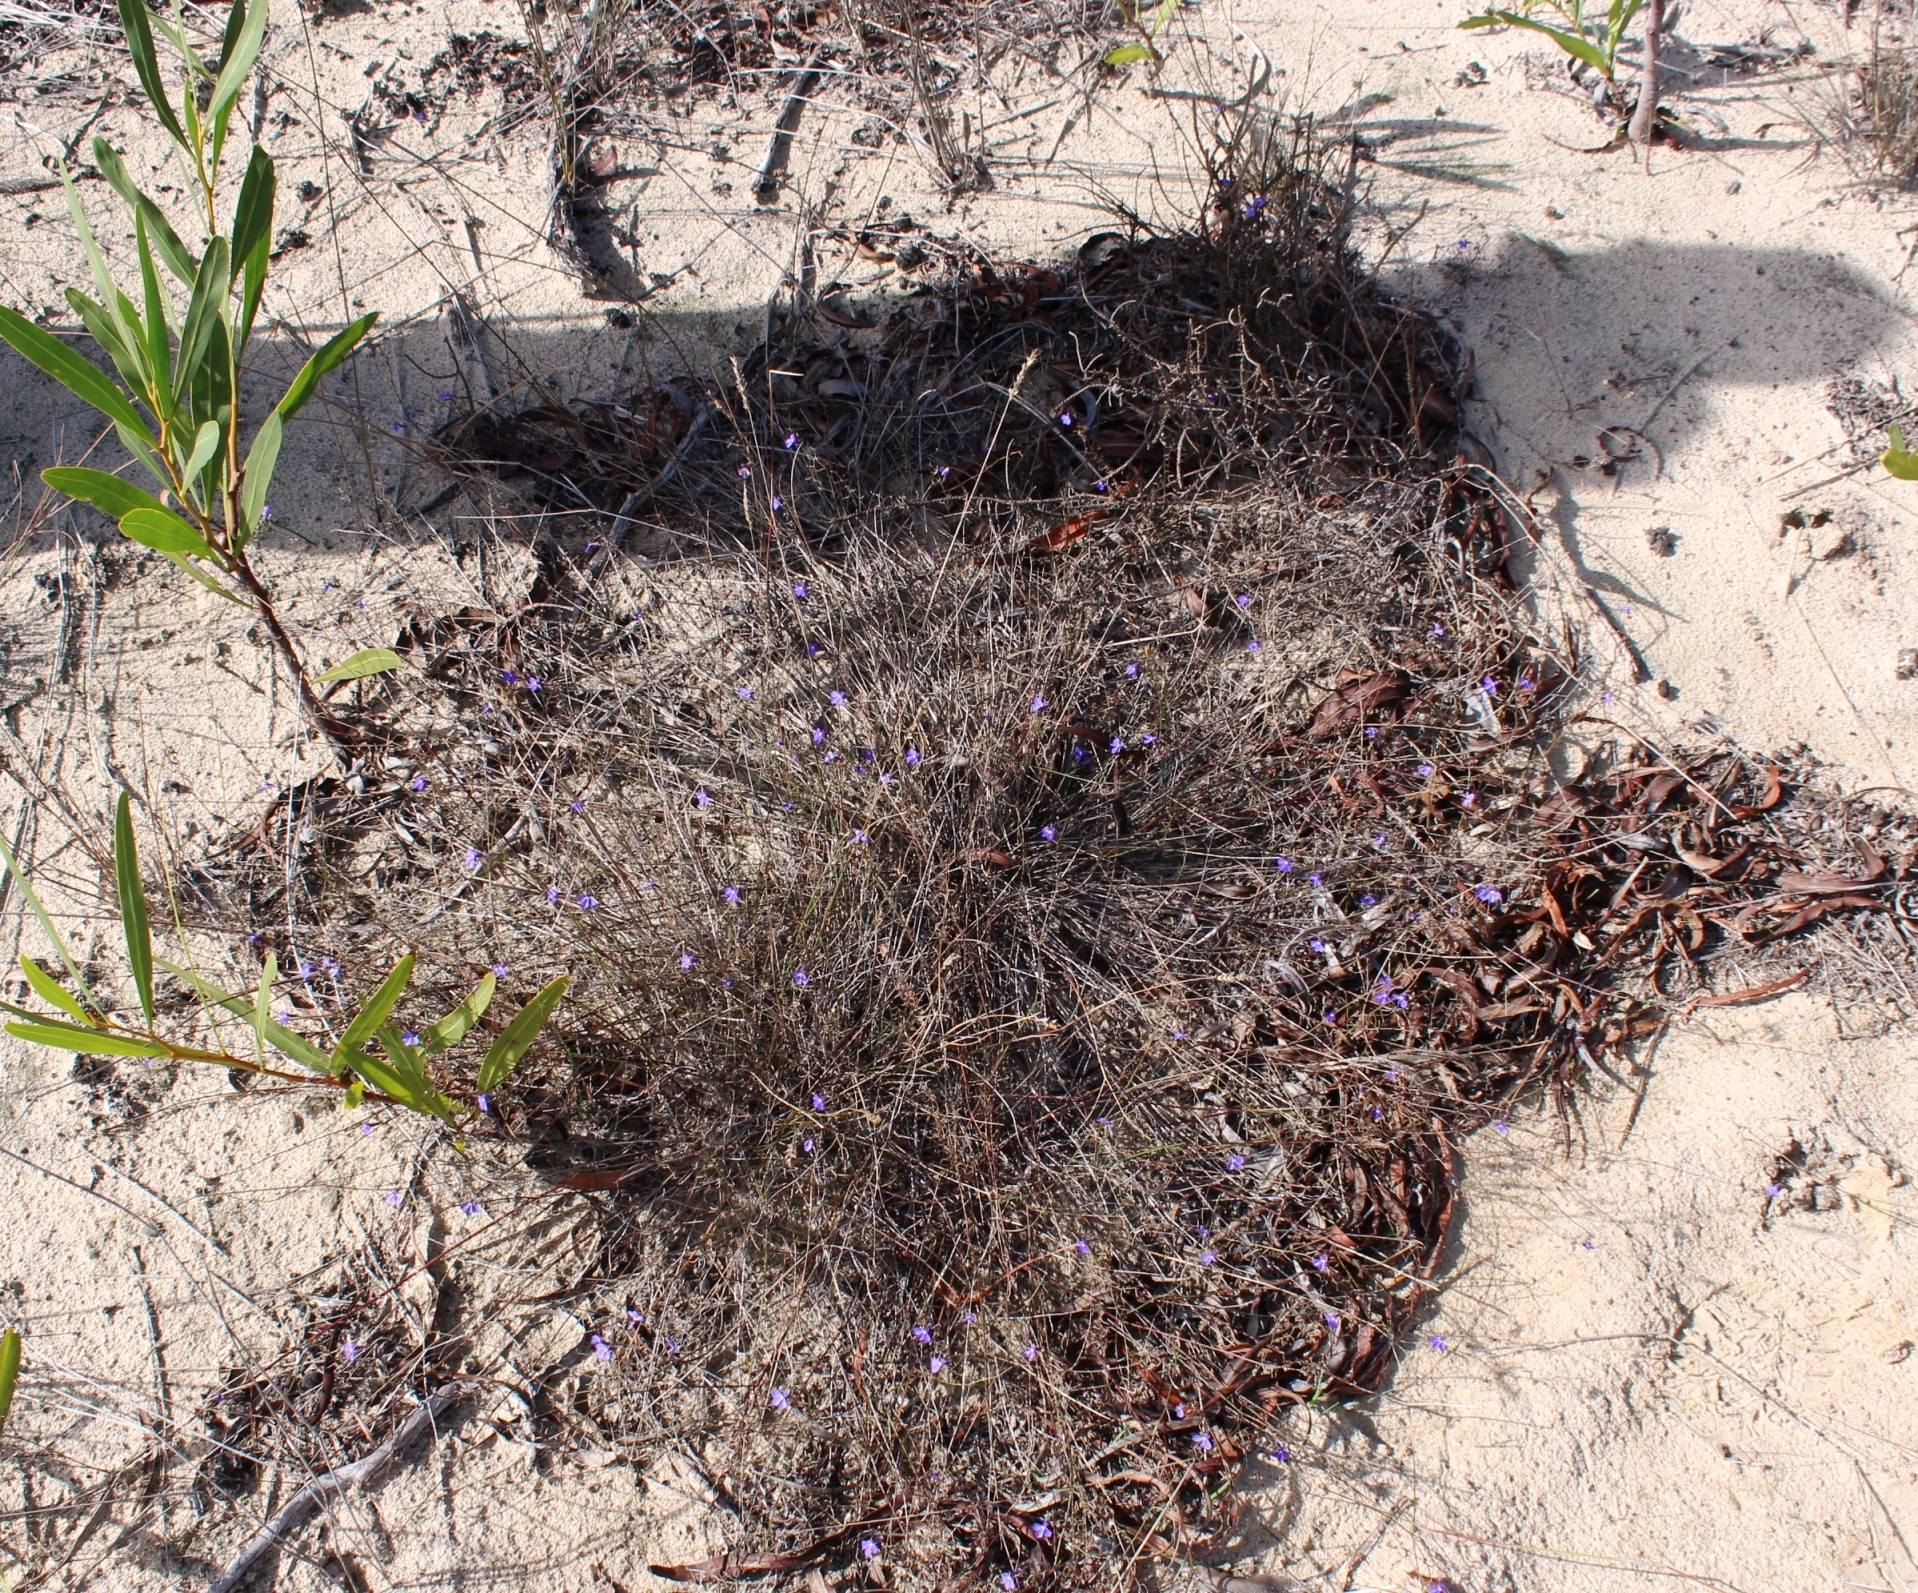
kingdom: Plantae
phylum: Tracheophyta
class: Magnoliopsida
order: Asterales
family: Campanulaceae
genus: Lobelia
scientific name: Lobelia setacea
